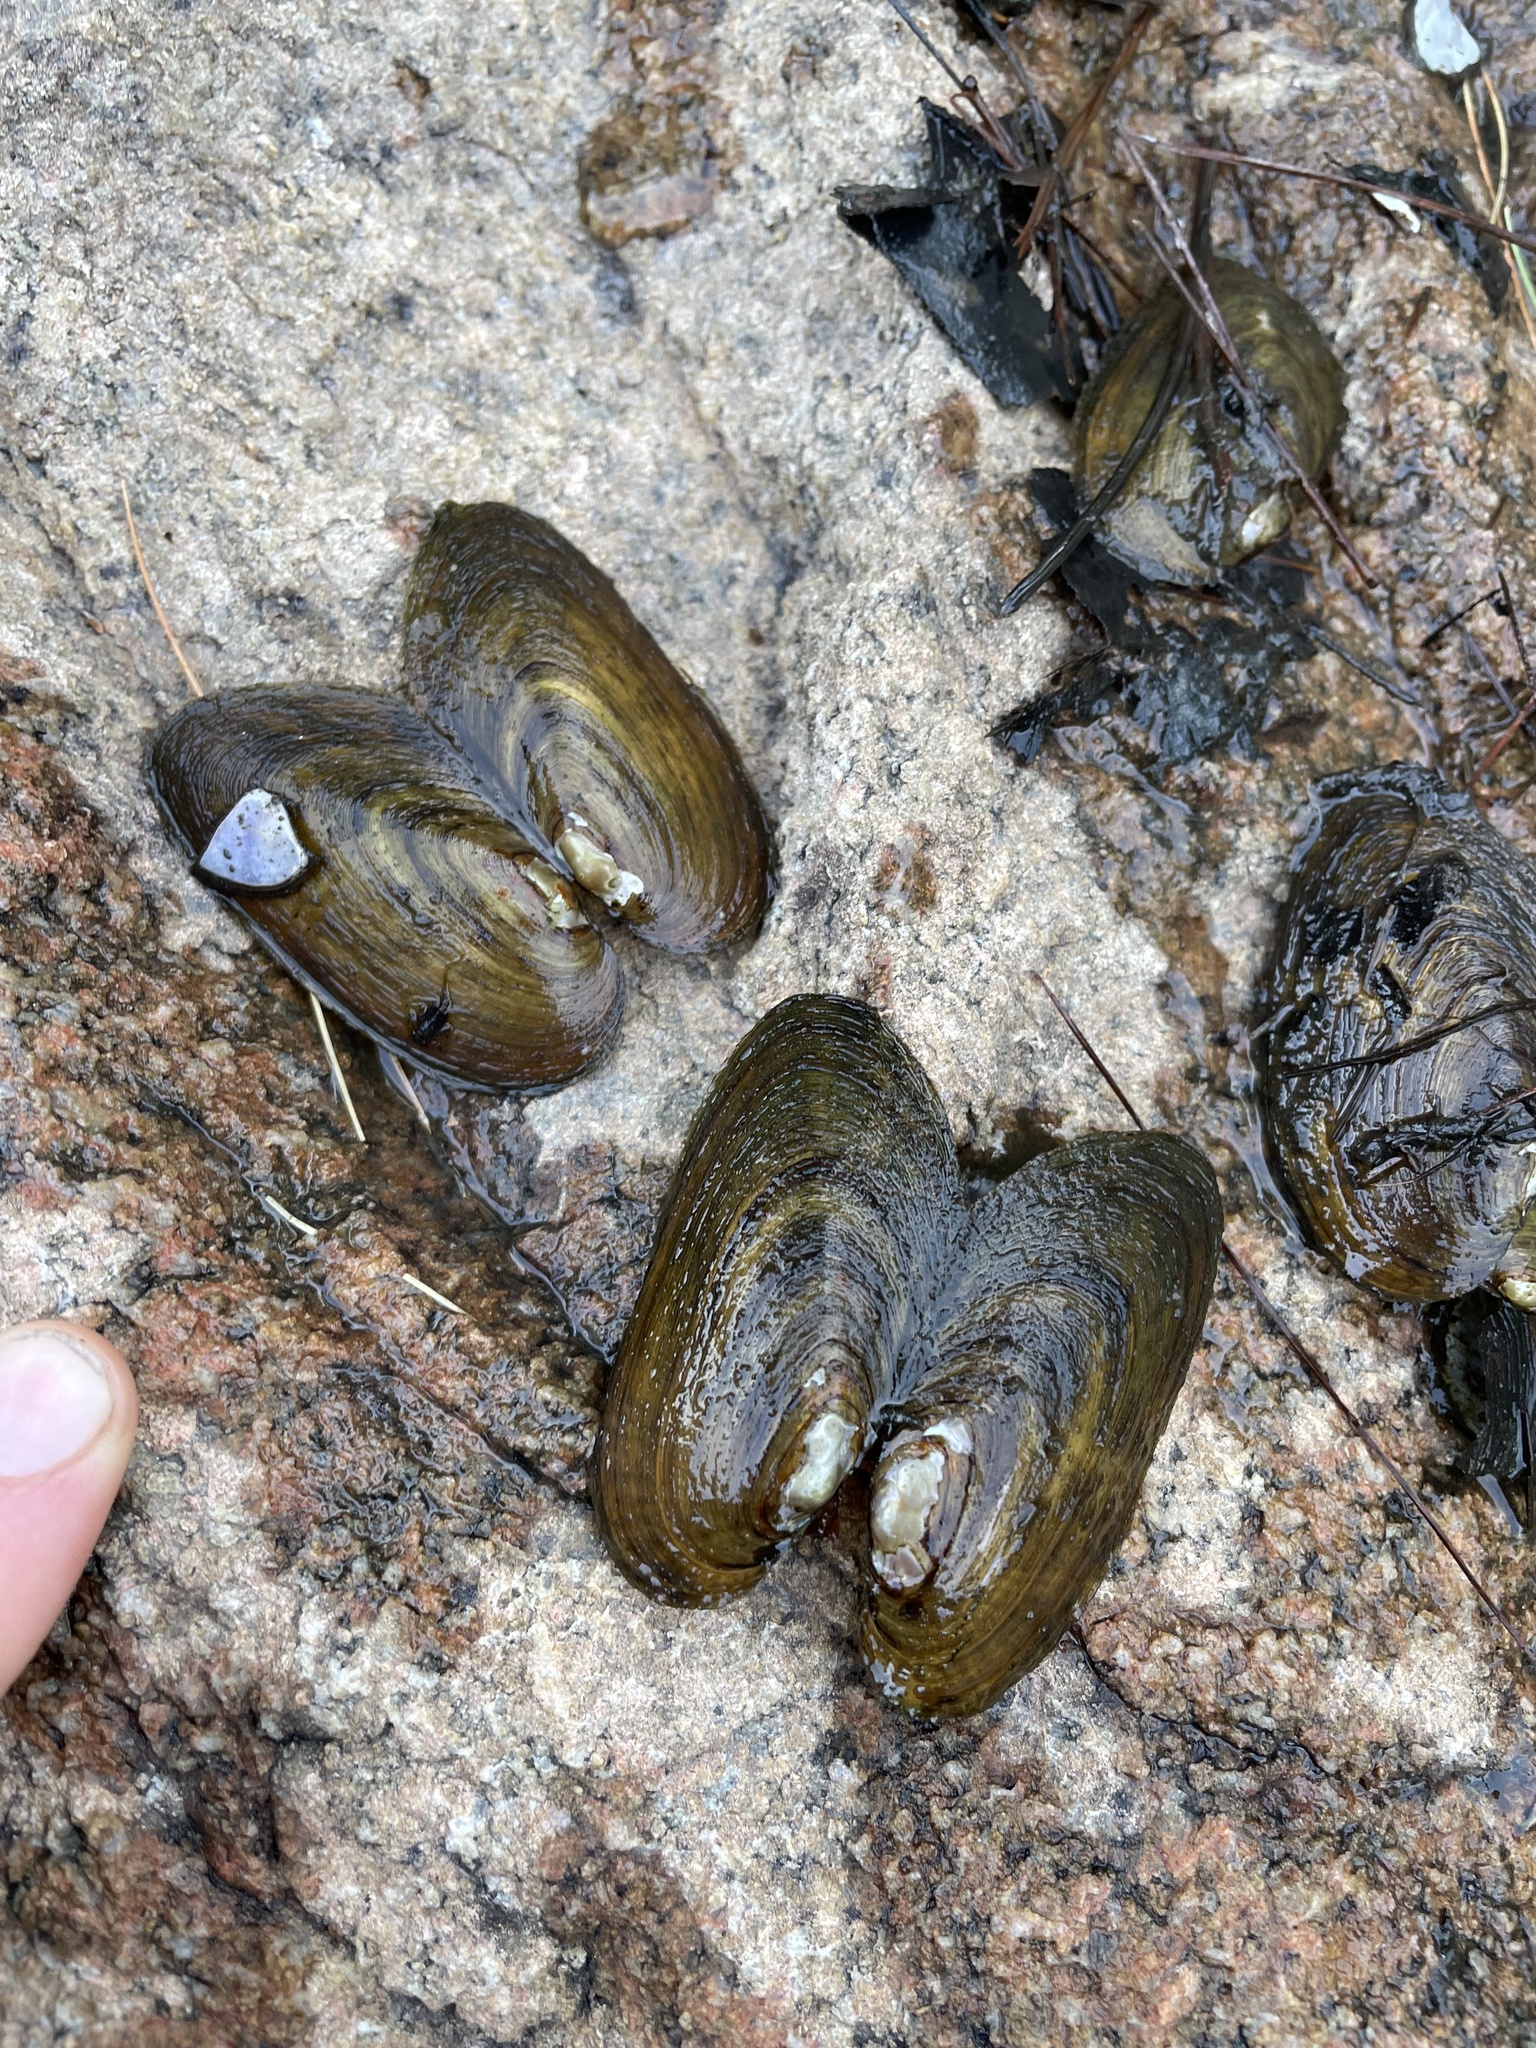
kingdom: Animalia
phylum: Mollusca
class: Bivalvia
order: Unionida
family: Unionidae
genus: Elliptio
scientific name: Elliptio complanata
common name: Eastern elliptio
